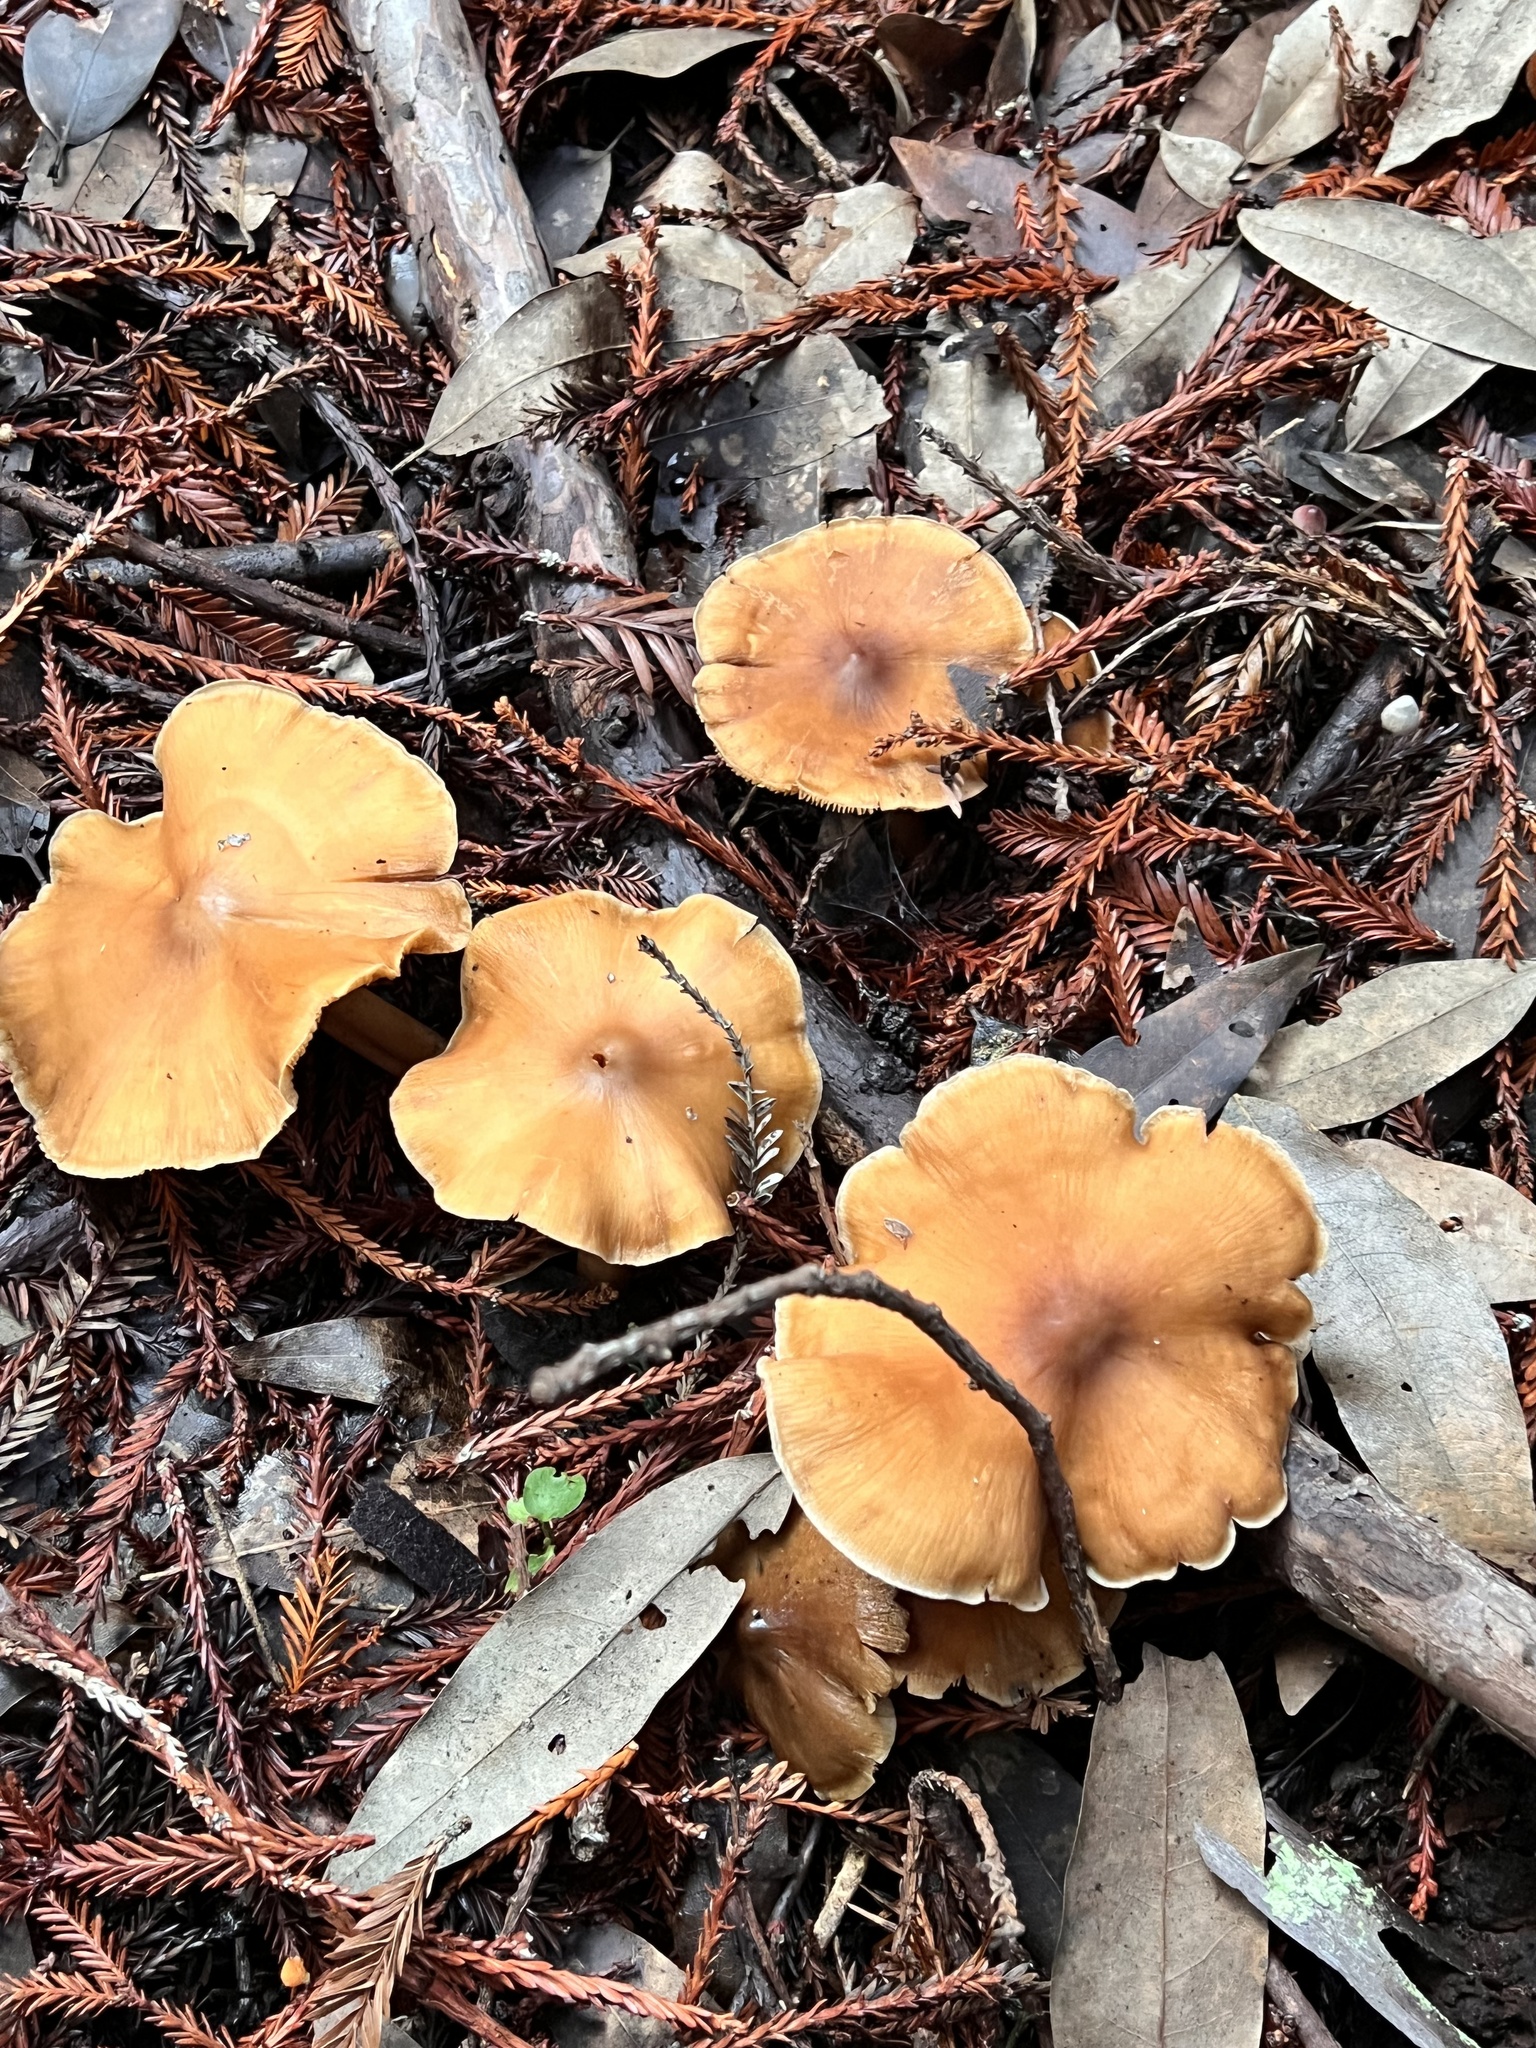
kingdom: Fungi
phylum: Basidiomycota
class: Agaricomycetes
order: Agaricales
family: Tricholomataceae
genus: Caulorhiza
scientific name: Caulorhiza umbonata
